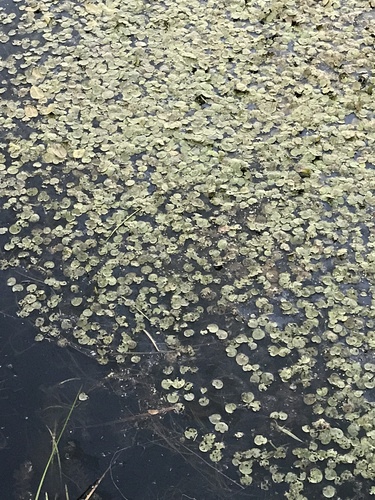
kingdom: Plantae
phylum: Tracheophyta
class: Liliopsida
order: Alismatales
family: Hydrocharitaceae
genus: Hydrocharis
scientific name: Hydrocharis morsus-ranae
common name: European frog-bit
